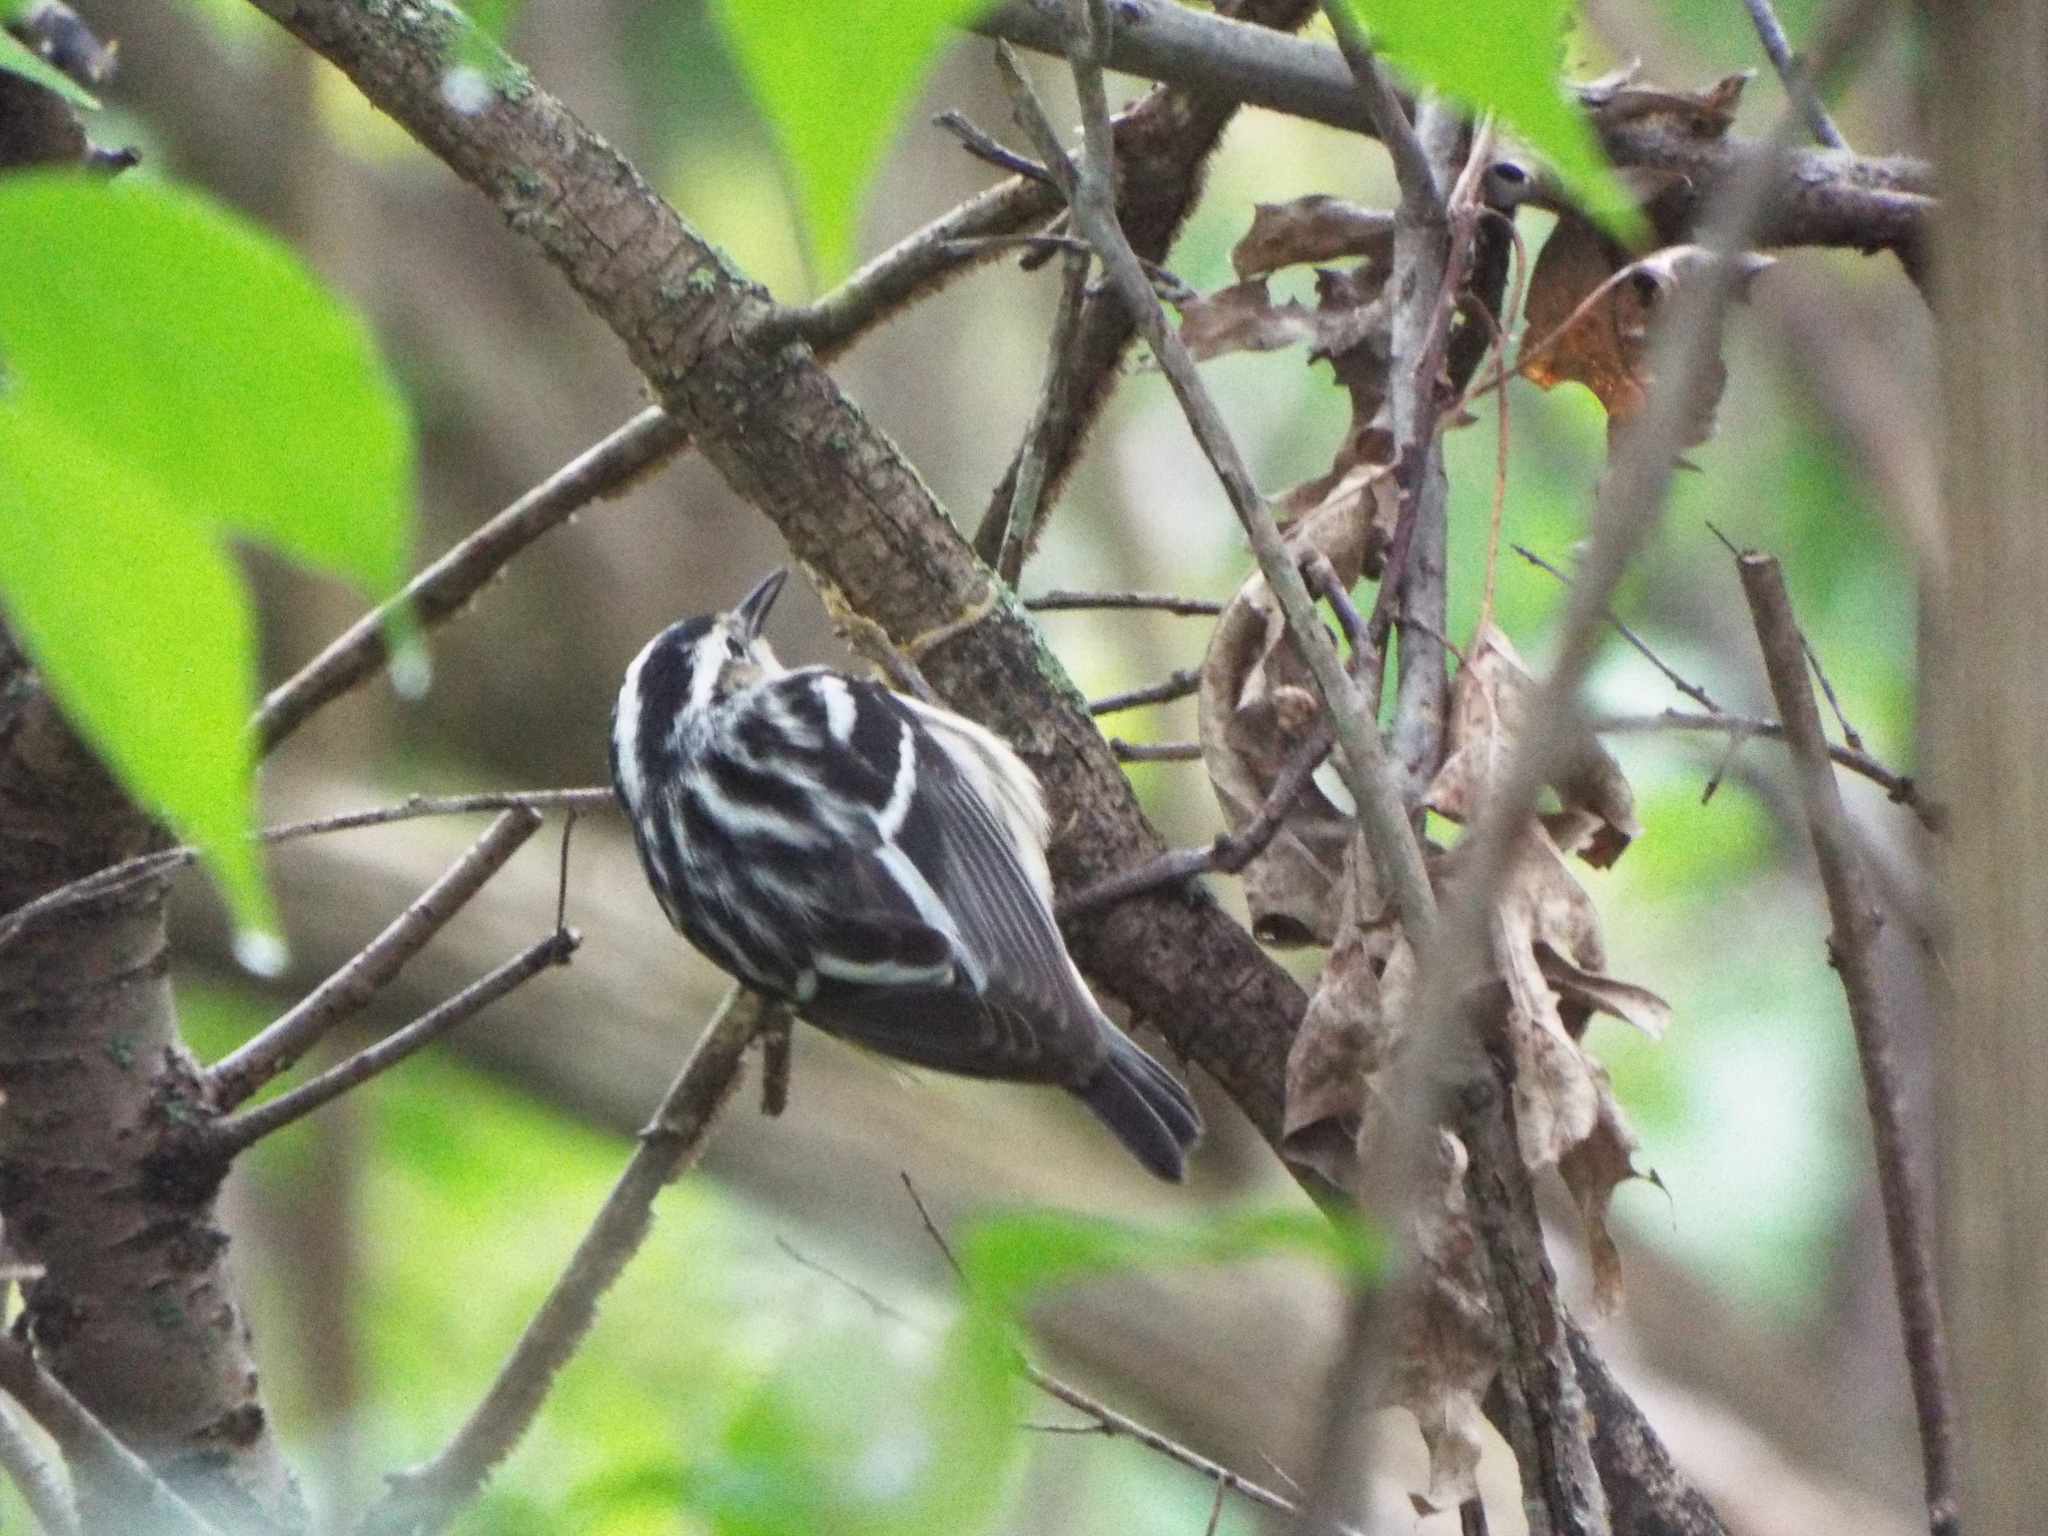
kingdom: Animalia
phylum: Chordata
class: Aves
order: Passeriformes
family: Parulidae
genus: Mniotilta
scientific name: Mniotilta varia
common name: Black-and-white warbler
